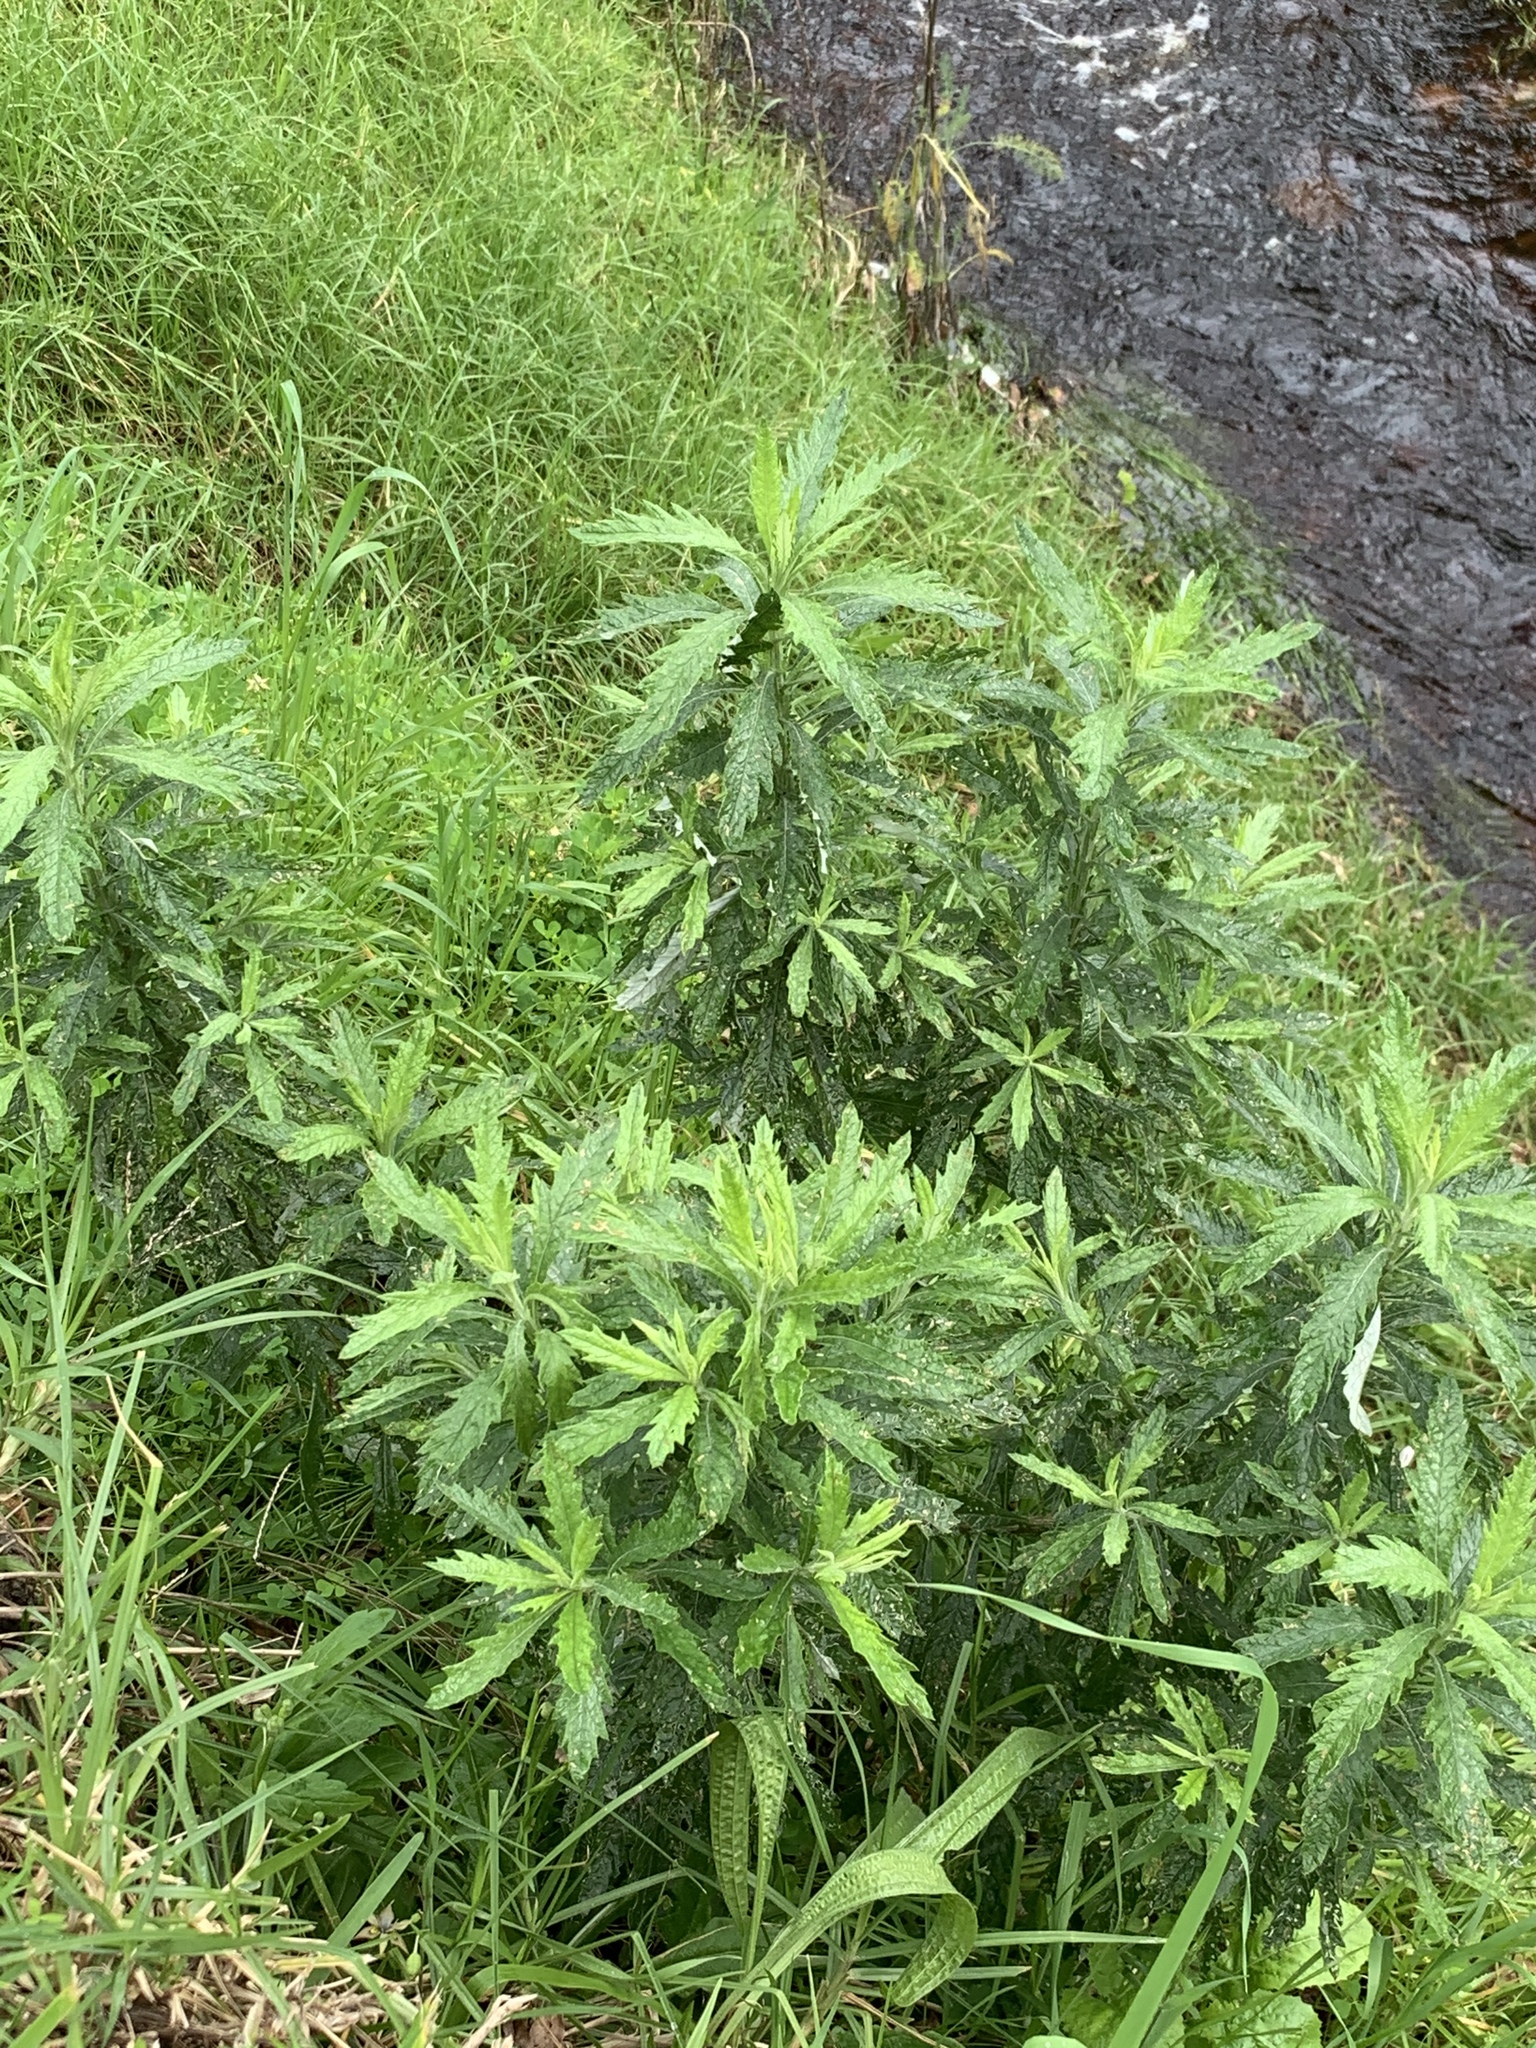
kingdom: Plantae
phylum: Tracheophyta
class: Magnoliopsida
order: Asterales
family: Asteraceae
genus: Senecio
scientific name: Senecio pterophorus
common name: Shoddy ragwort
